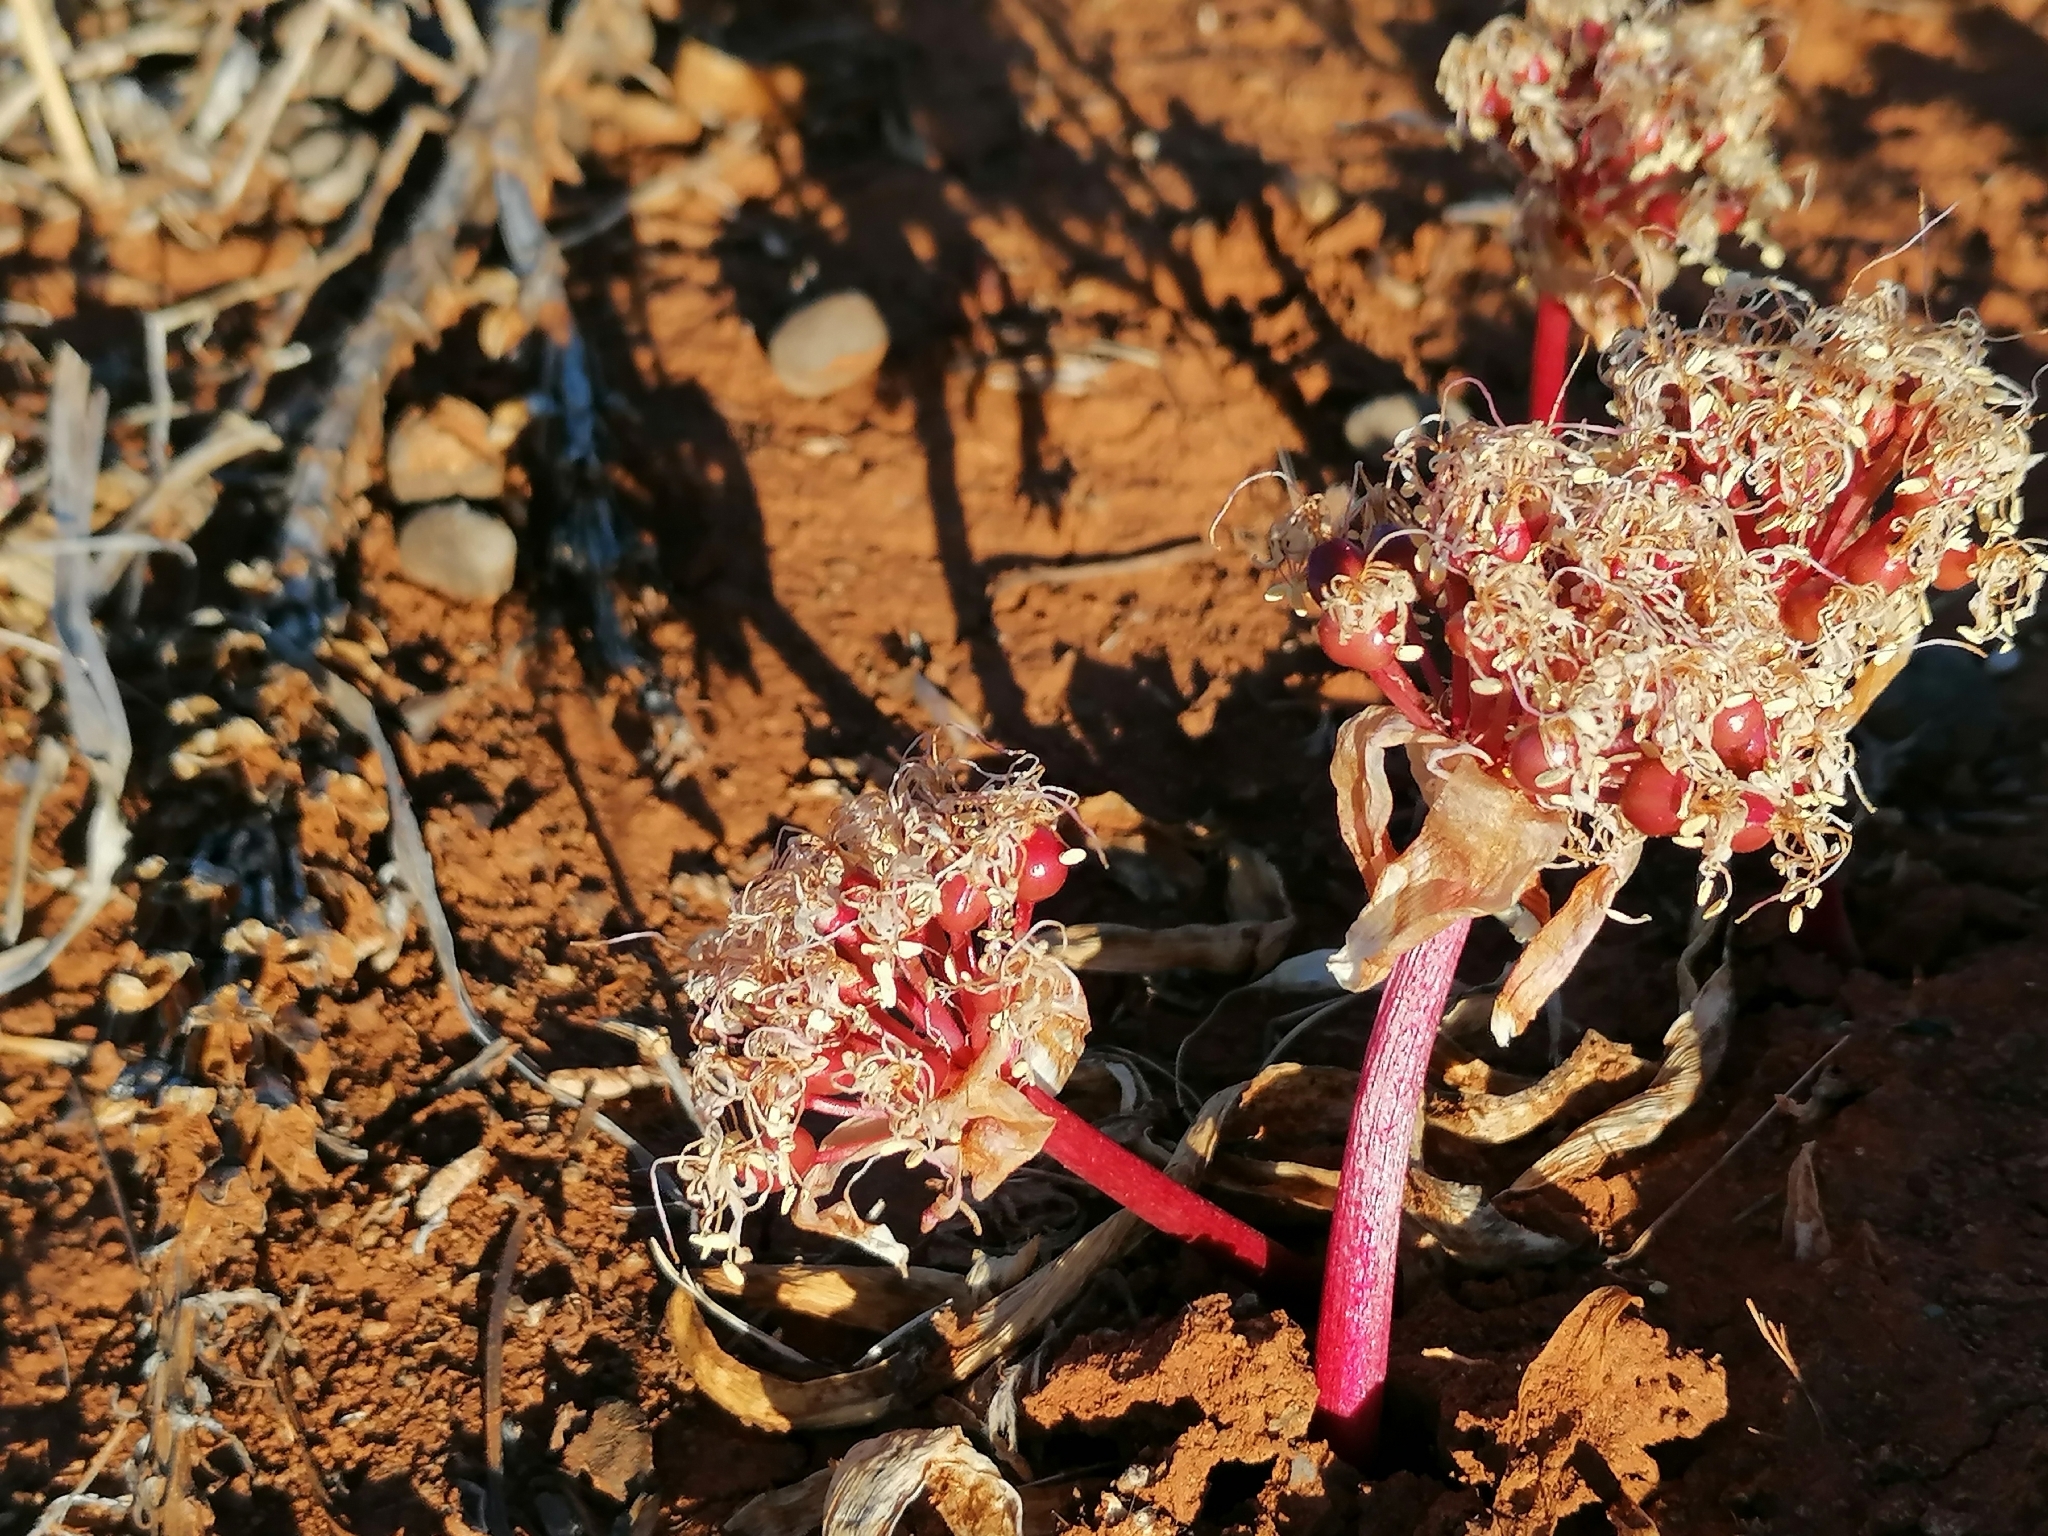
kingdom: Plantae
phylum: Tracheophyta
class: Liliopsida
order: Asparagales
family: Amaryllidaceae
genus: Haemanthus
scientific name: Haemanthus barkerae
